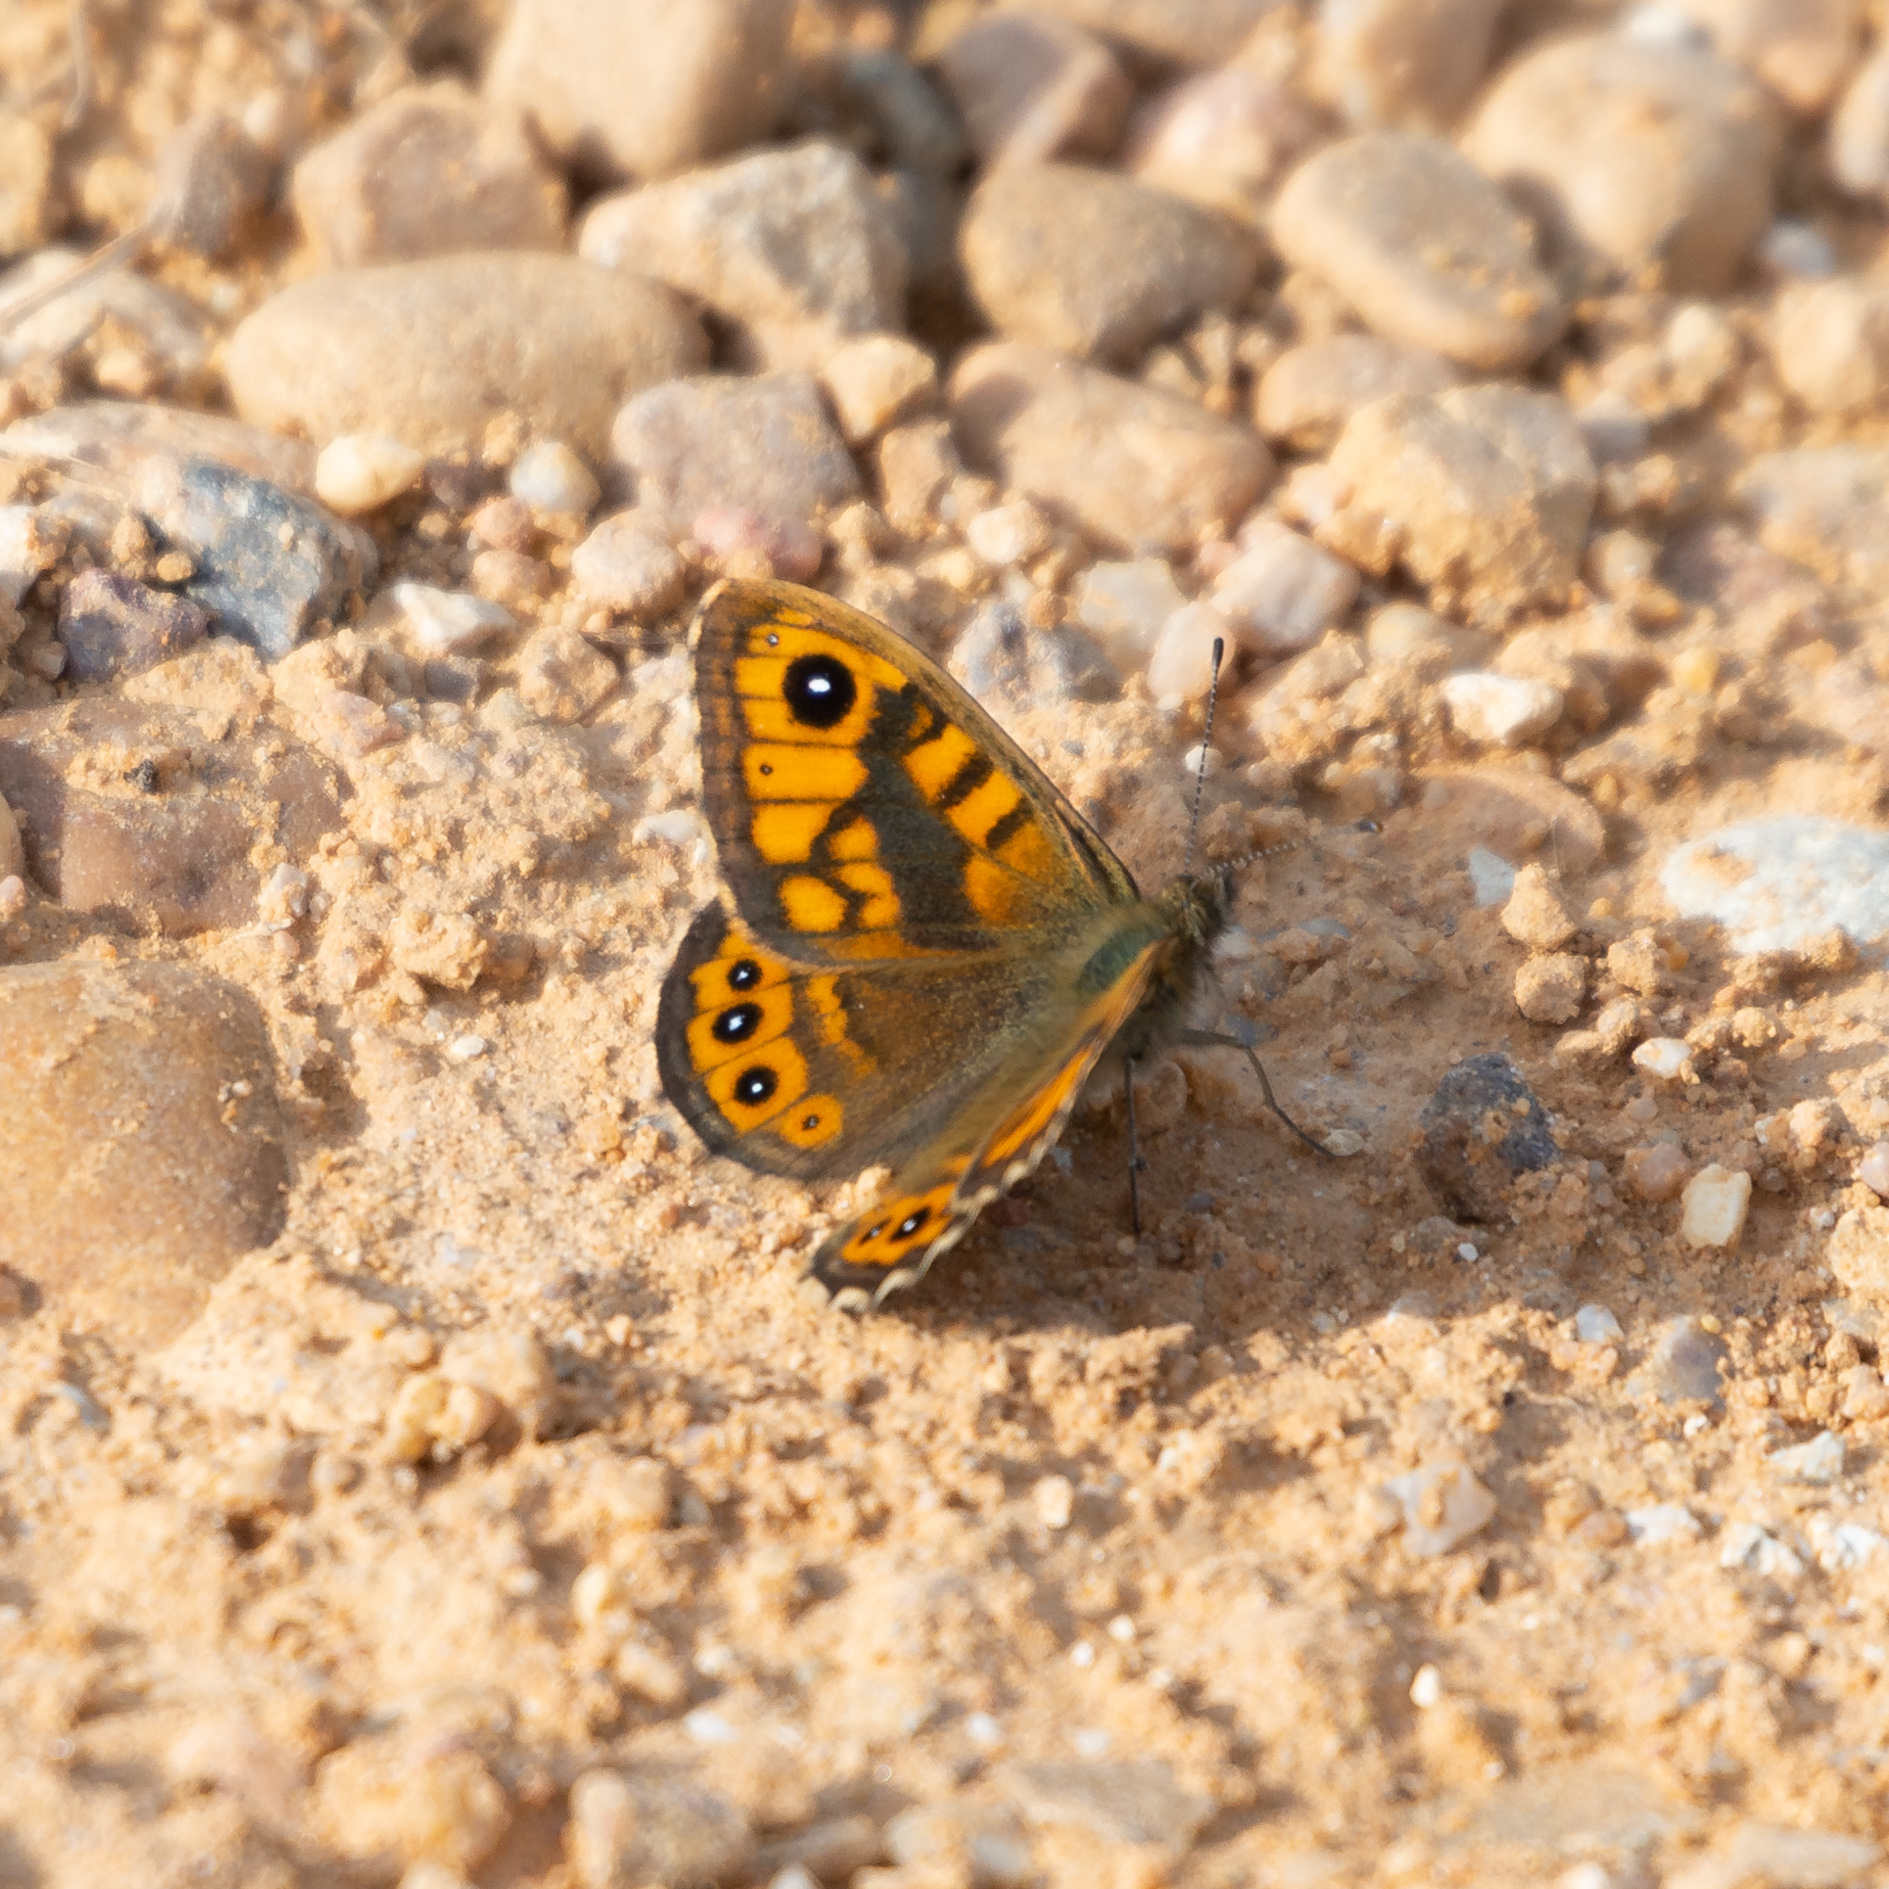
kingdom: Animalia
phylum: Arthropoda
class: Insecta
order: Lepidoptera
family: Nymphalidae
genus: Pararge
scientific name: Pararge Lasiommata megera
